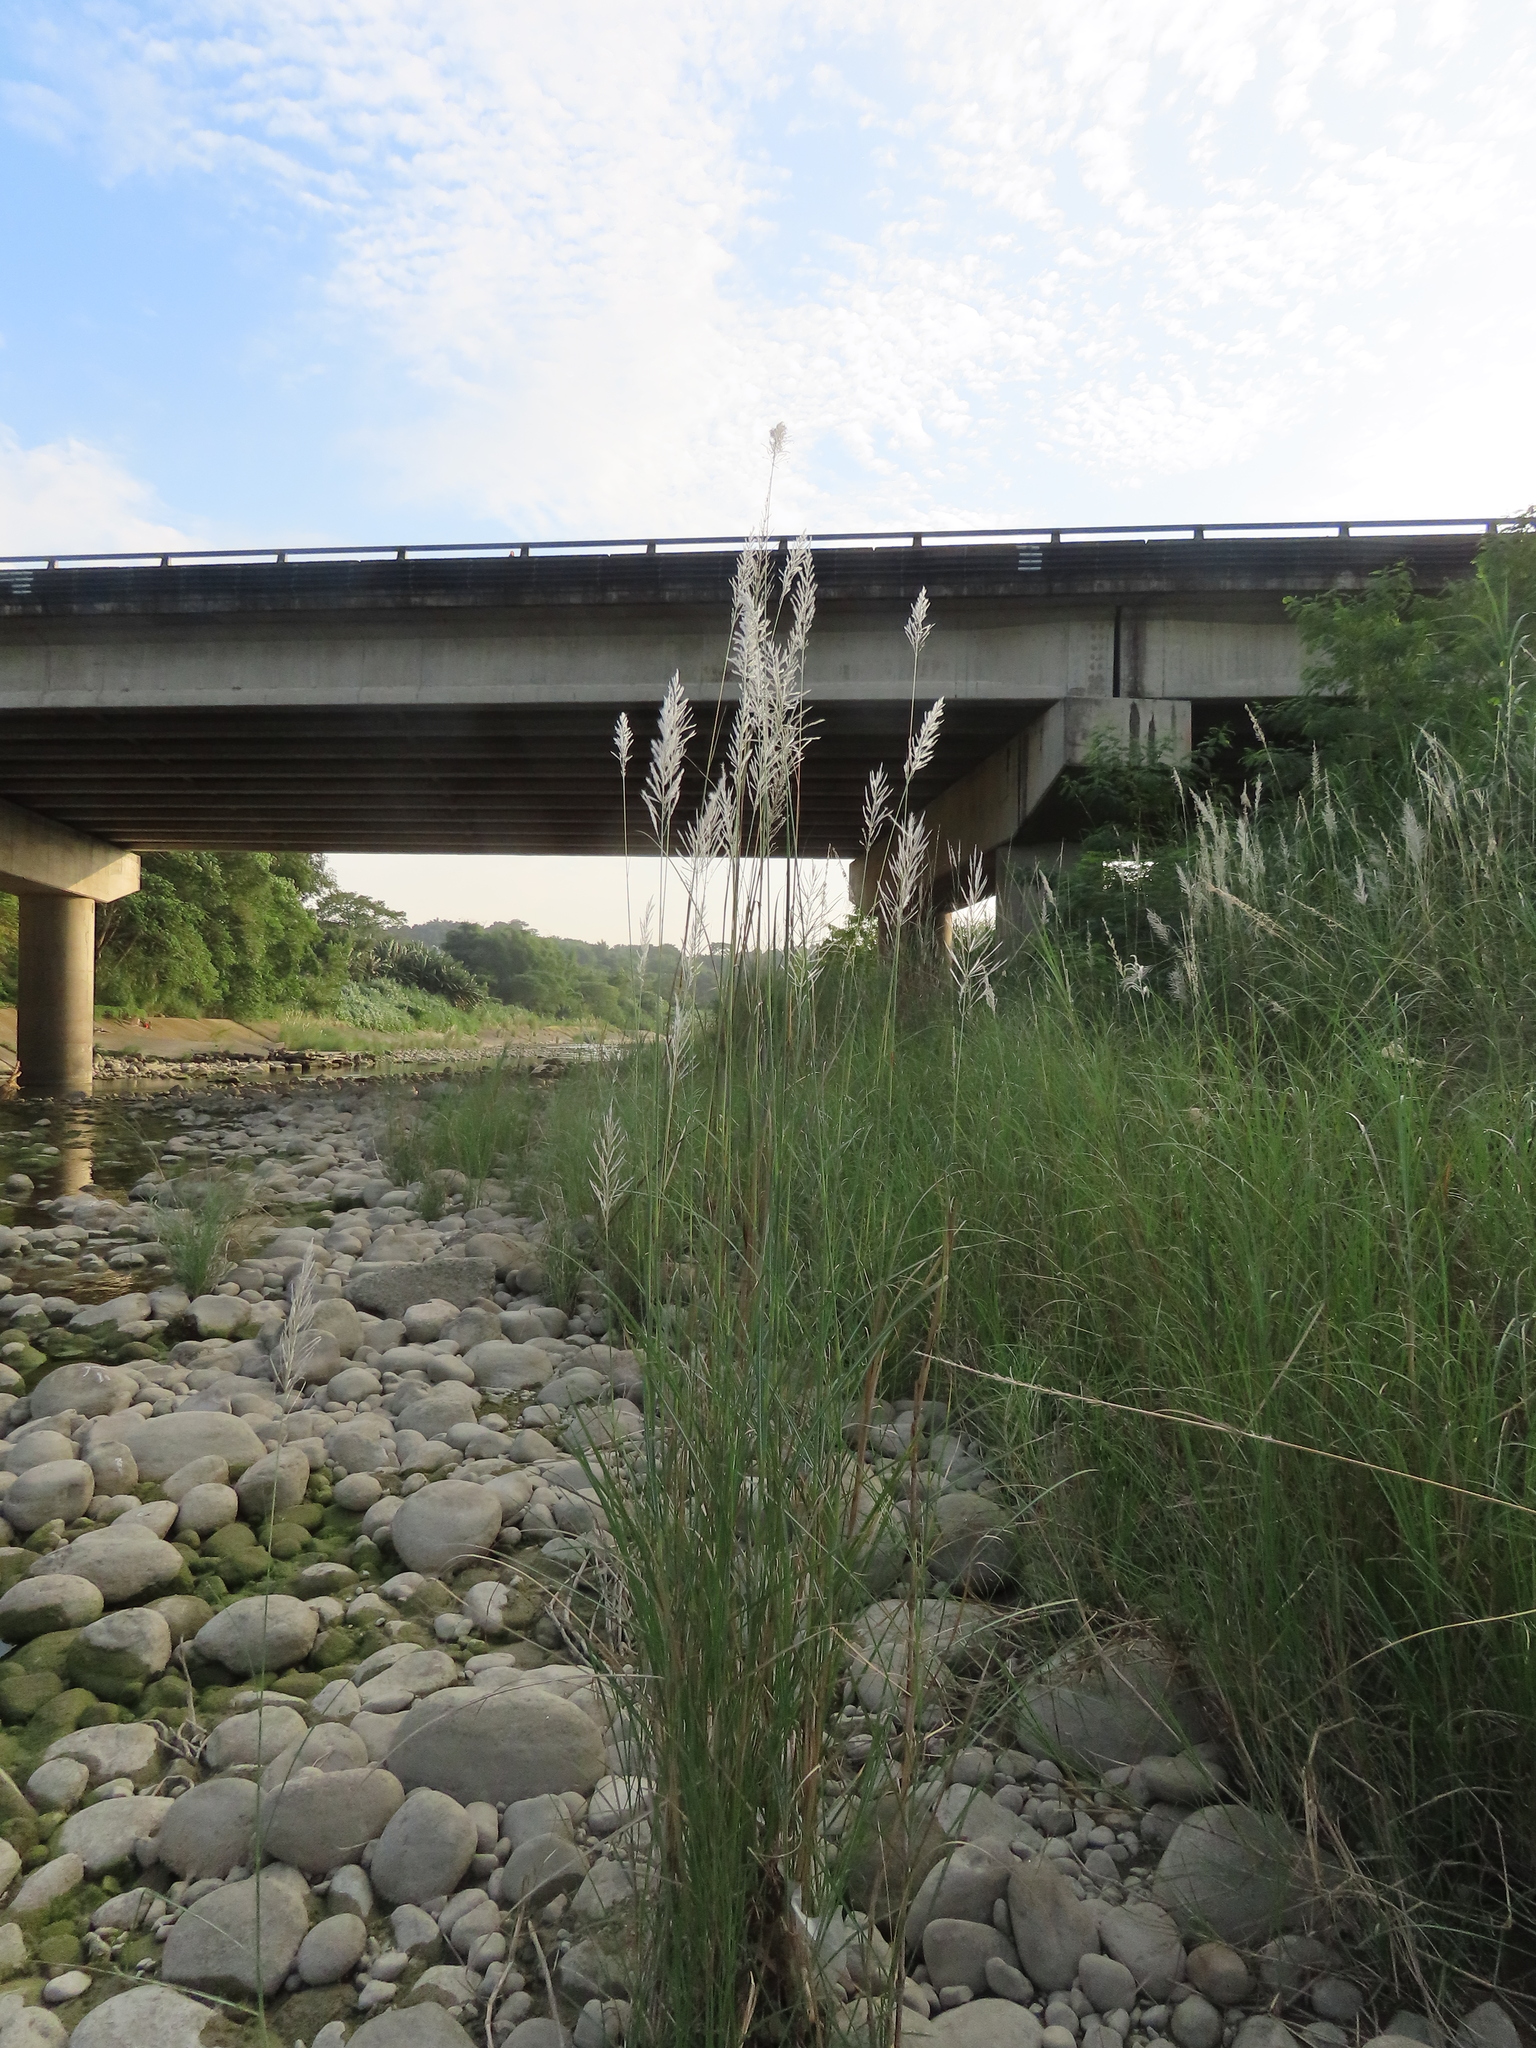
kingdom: Plantae
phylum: Tracheophyta
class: Liliopsida
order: Poales
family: Poaceae
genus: Saccharum
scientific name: Saccharum spontaneum
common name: Wild sugarcane
